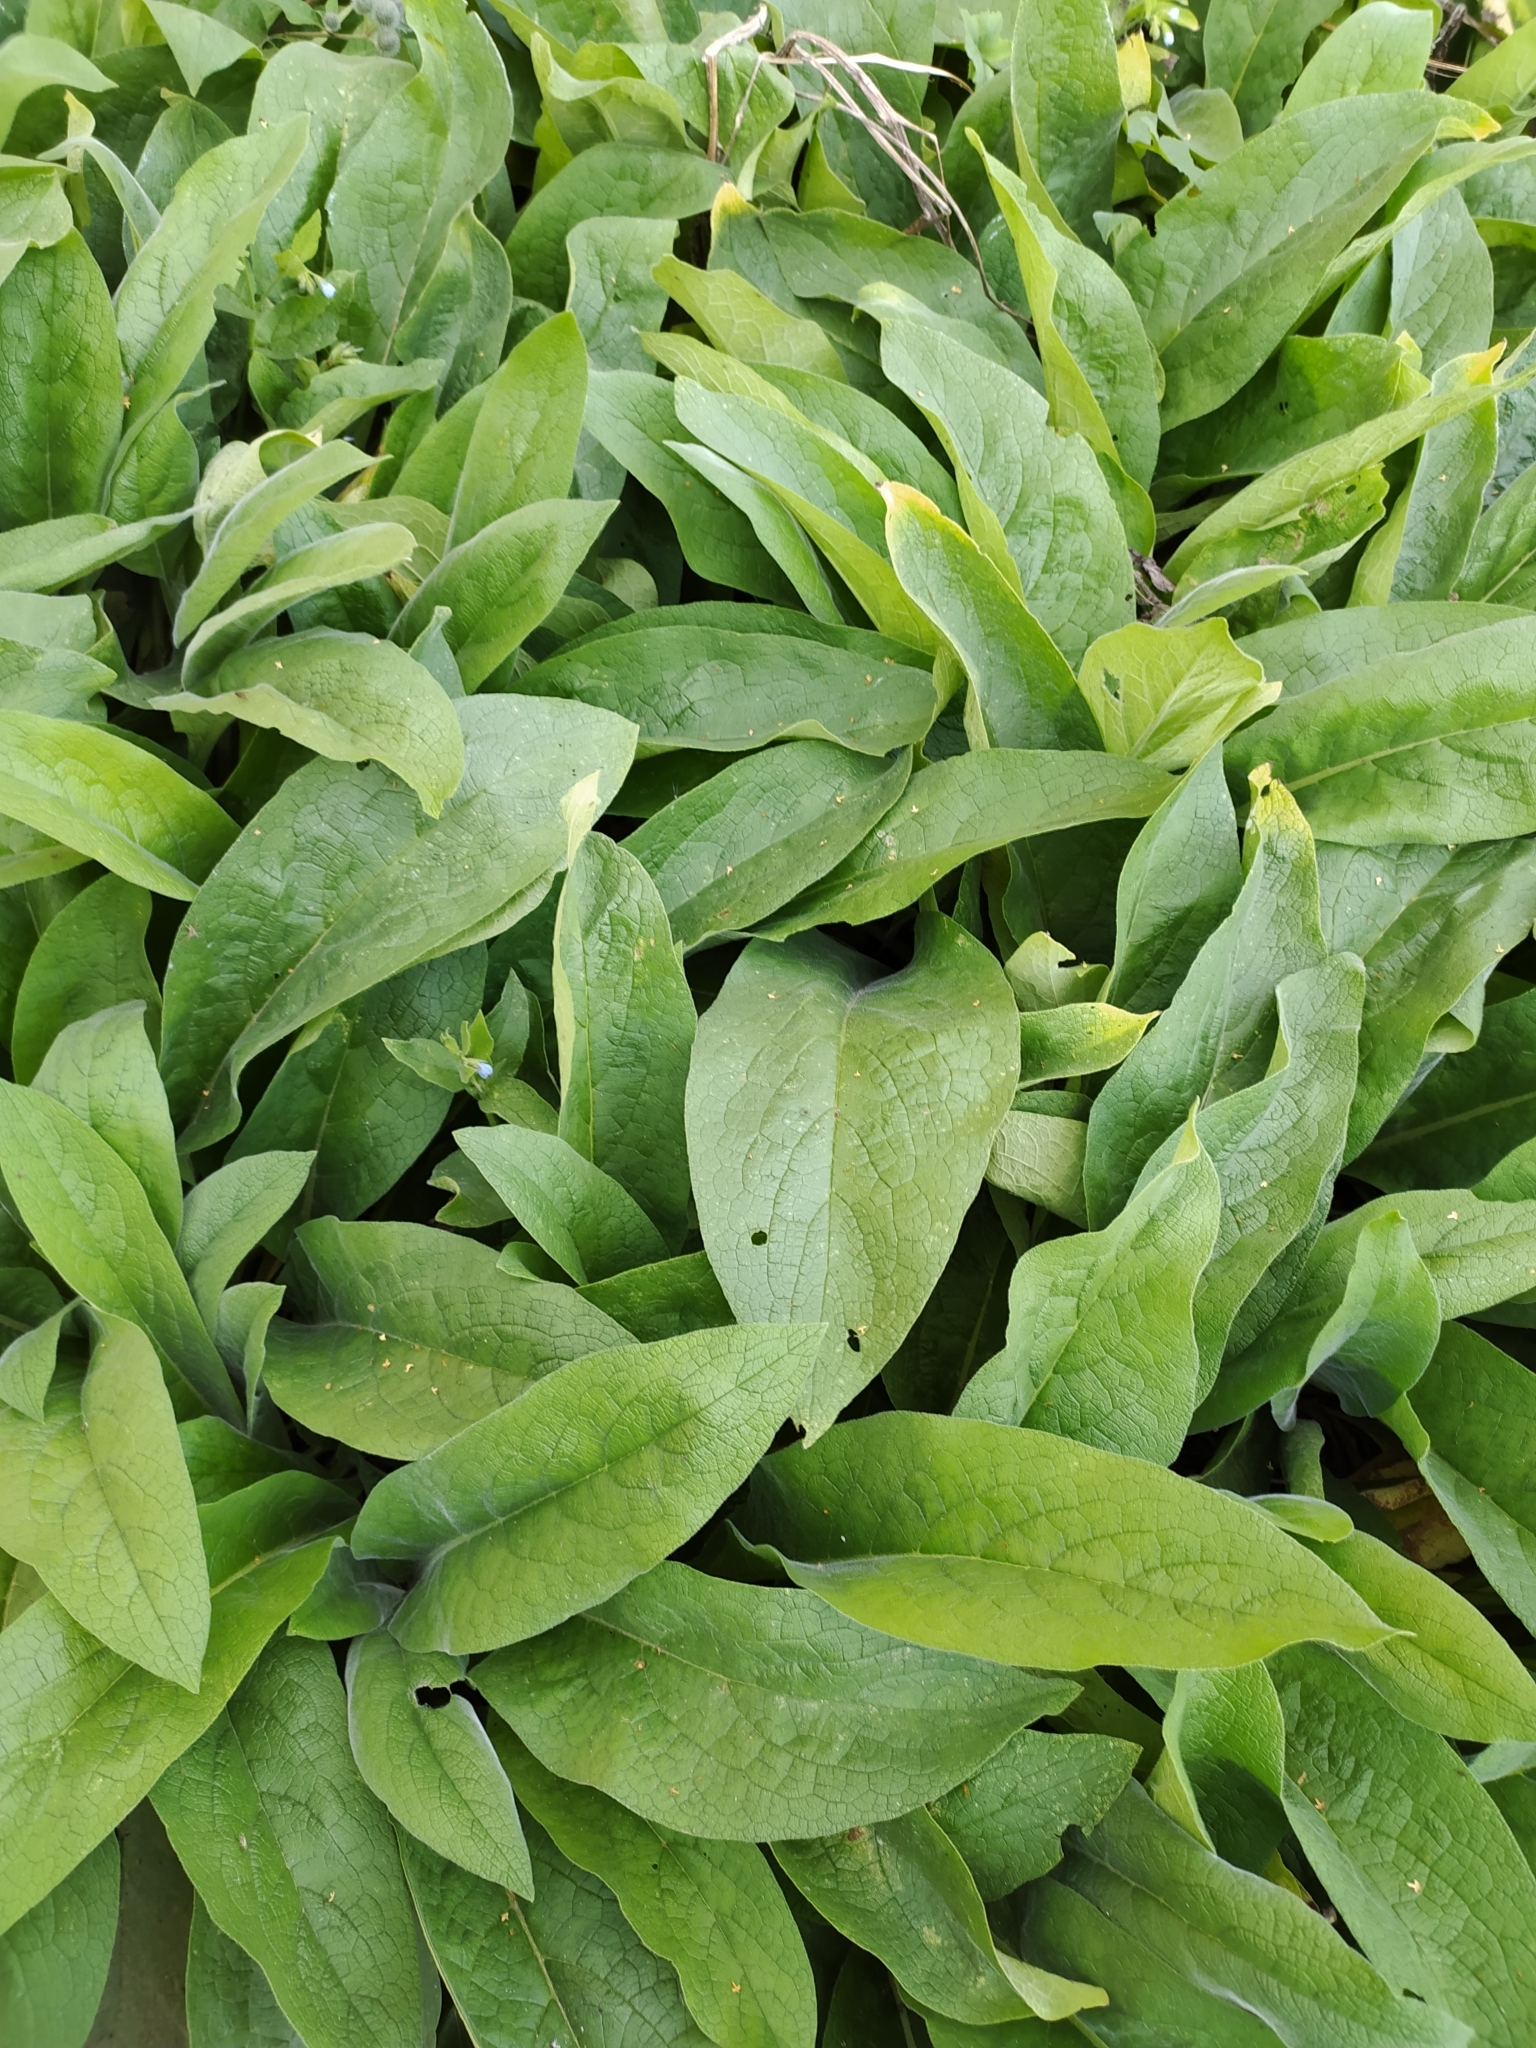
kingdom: Plantae
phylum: Tracheophyta
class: Magnoliopsida
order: Boraginales
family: Boraginaceae
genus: Symphytum
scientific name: Symphytum officinale
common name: Common comfrey
